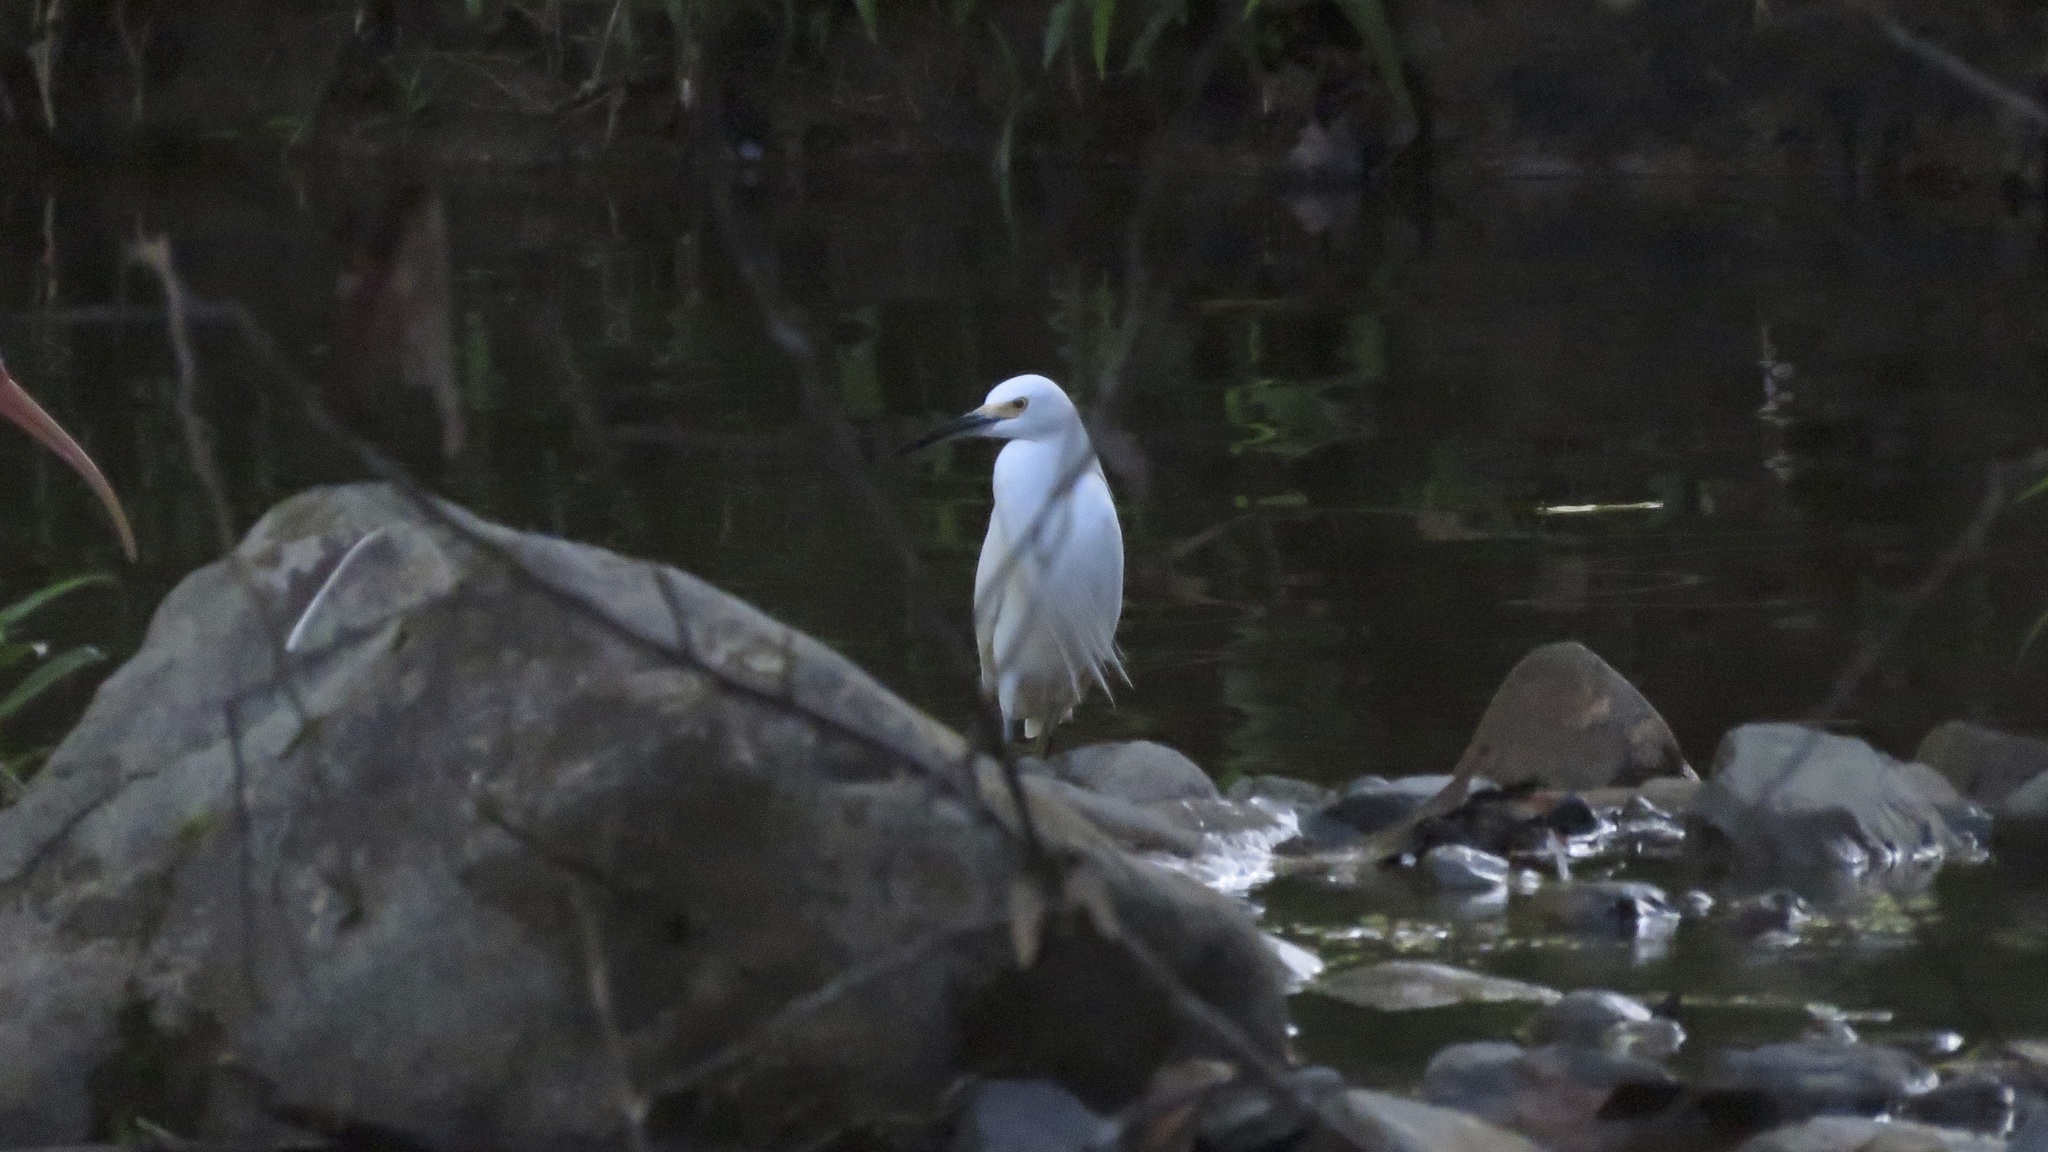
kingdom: Animalia
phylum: Chordata
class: Aves
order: Pelecaniformes
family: Ardeidae
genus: Egretta
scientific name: Egretta thula
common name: Snowy egret
